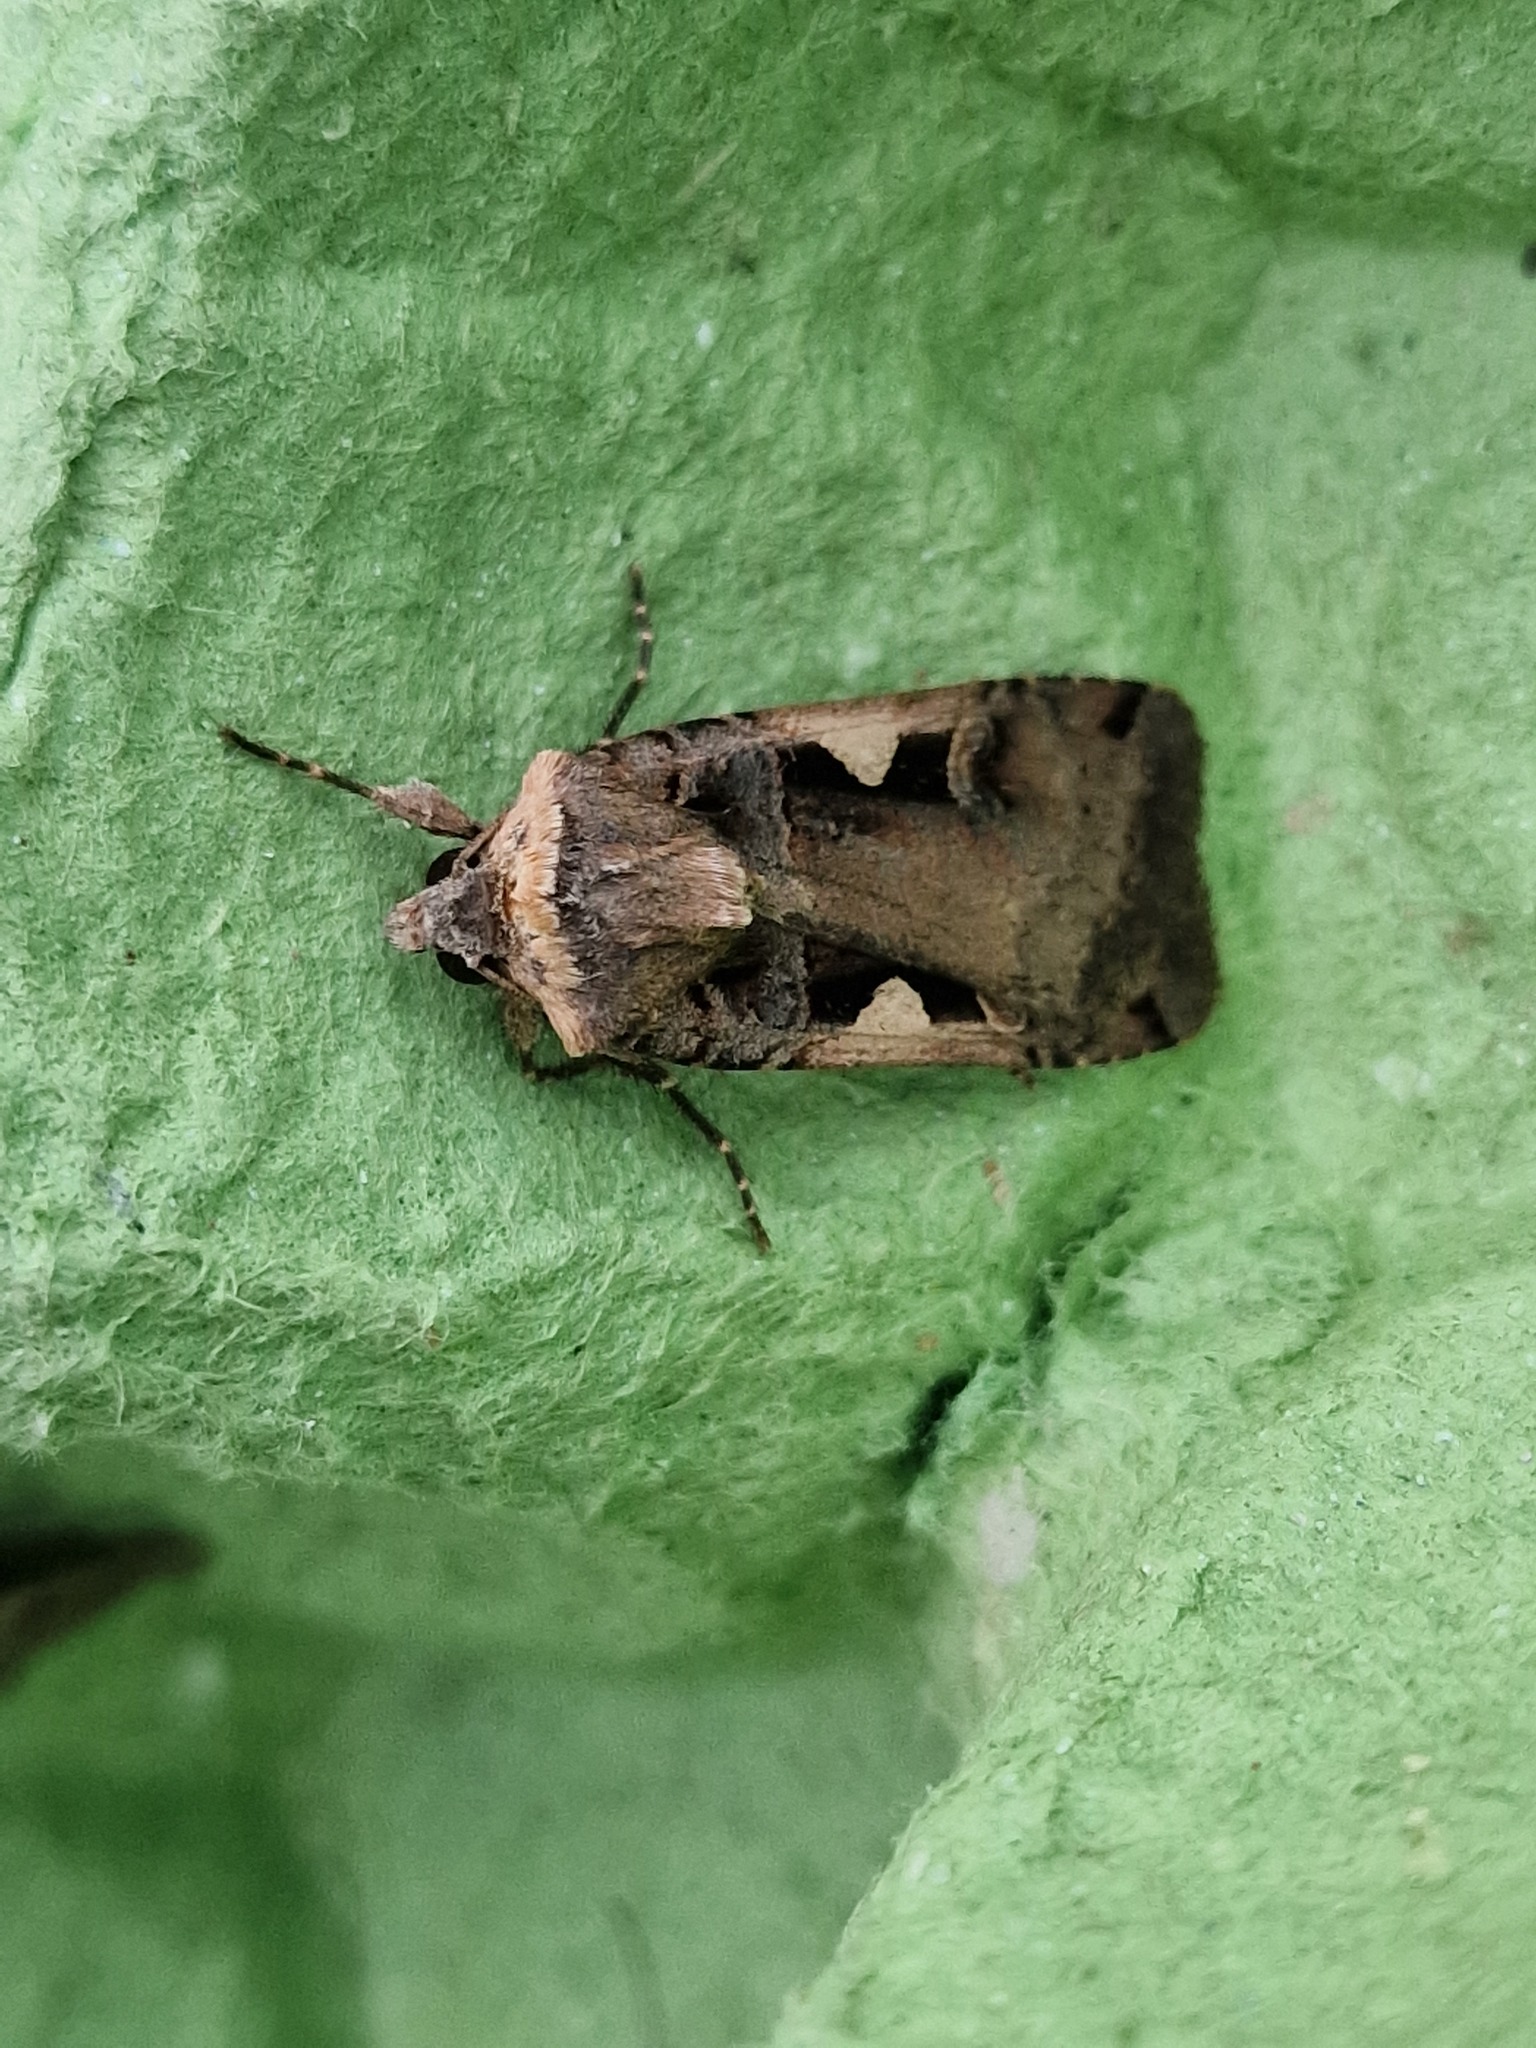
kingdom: Animalia
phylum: Arthropoda
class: Insecta
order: Lepidoptera
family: Noctuidae
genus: Xestia
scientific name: Xestia c-nigrum
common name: Setaceous hebrew character
